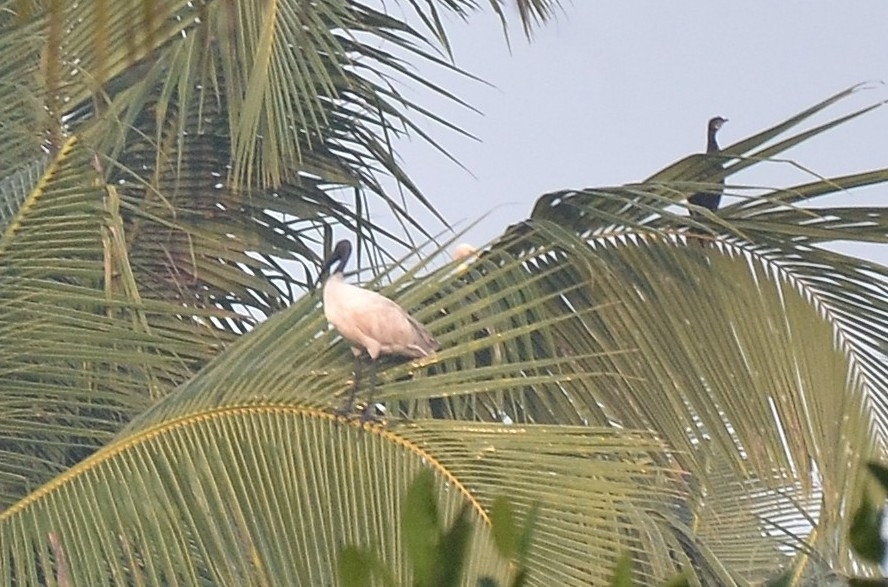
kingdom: Animalia
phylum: Chordata
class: Aves
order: Pelecaniformes
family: Threskiornithidae
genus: Threskiornis
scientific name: Threskiornis melanocephalus
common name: Black-headed ibis
